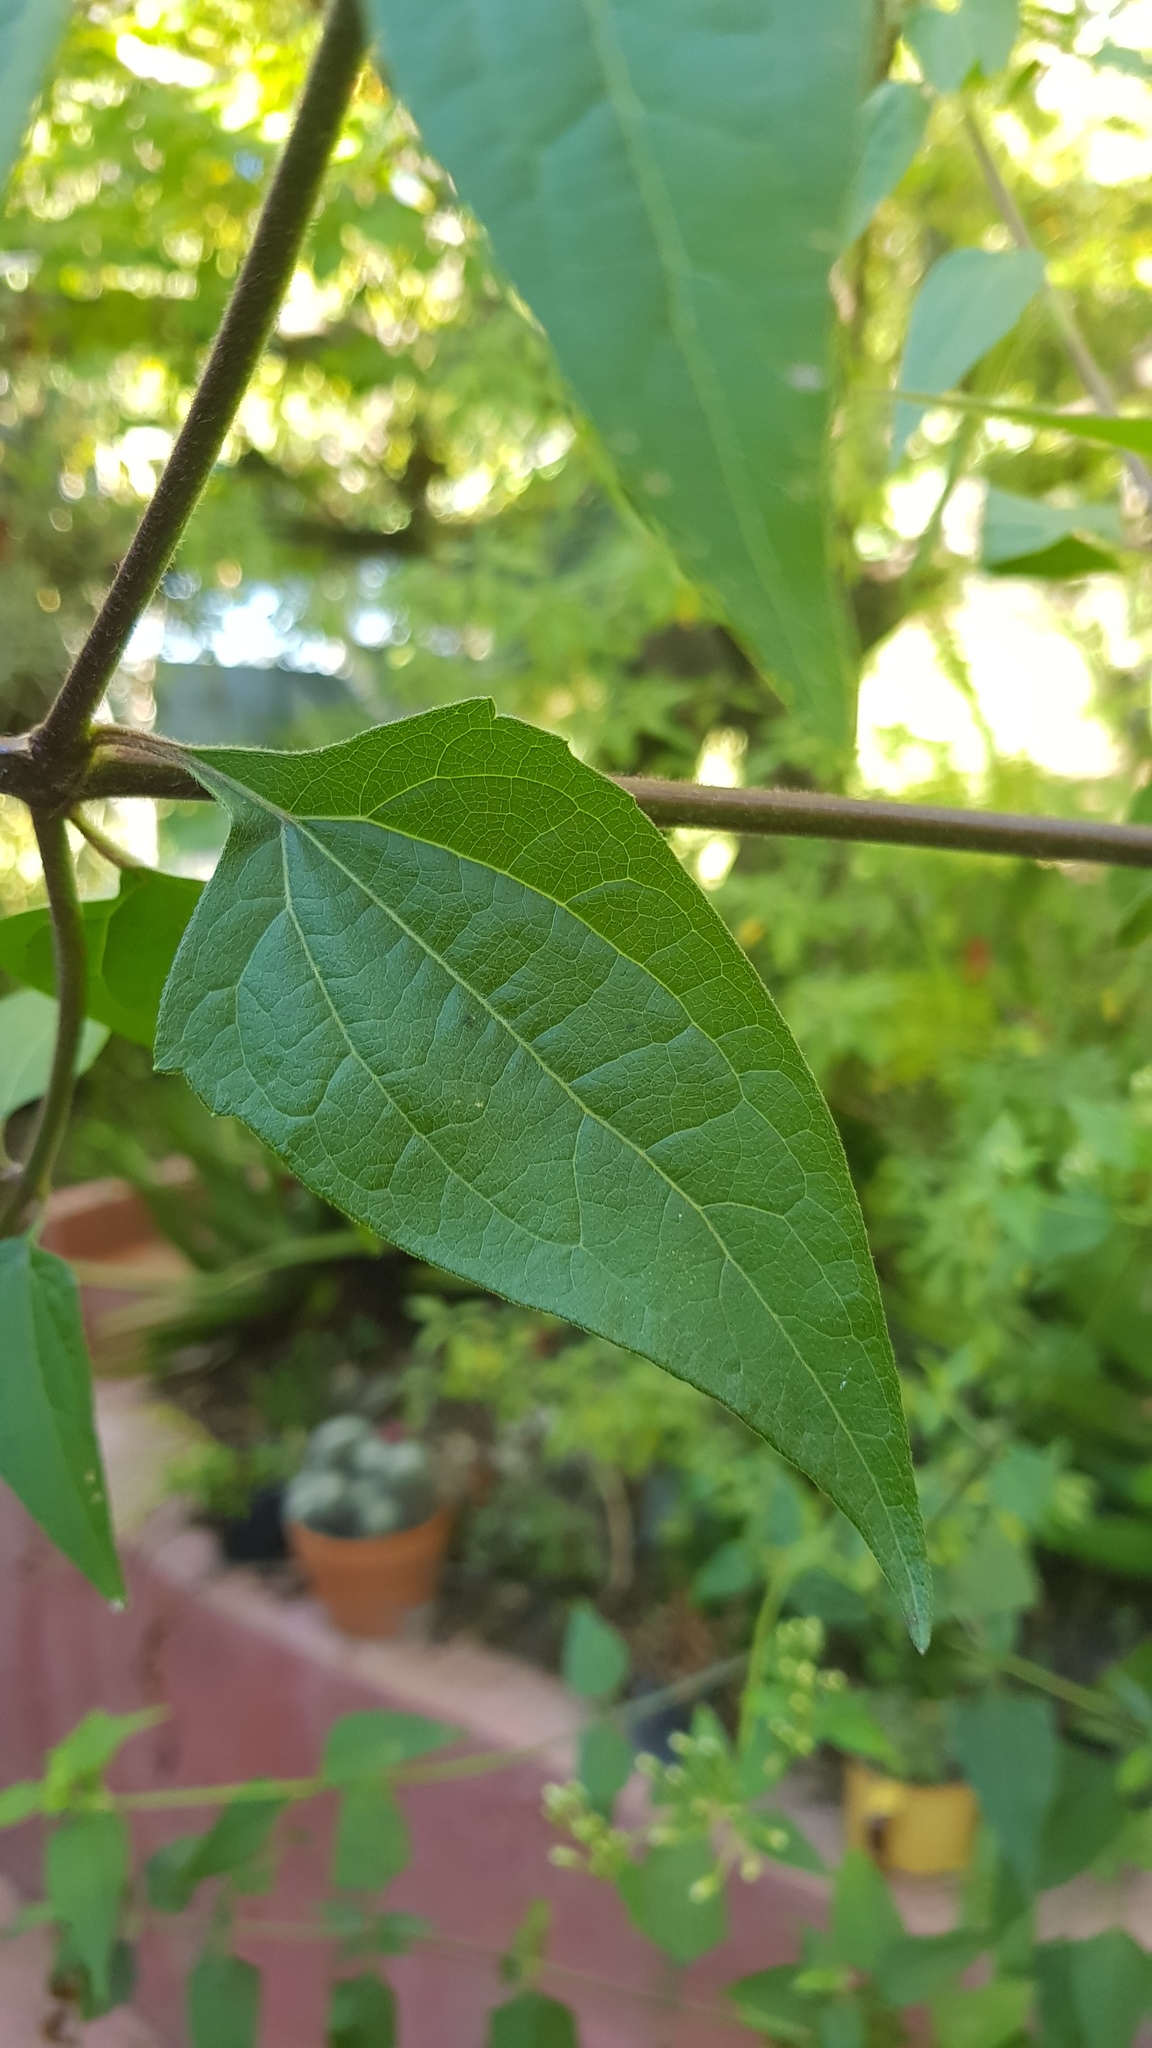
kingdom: Plantae
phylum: Tracheophyta
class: Magnoliopsida
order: Asterales
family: Asteraceae
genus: Chromolaena
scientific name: Chromolaena odorata
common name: Siamweed
